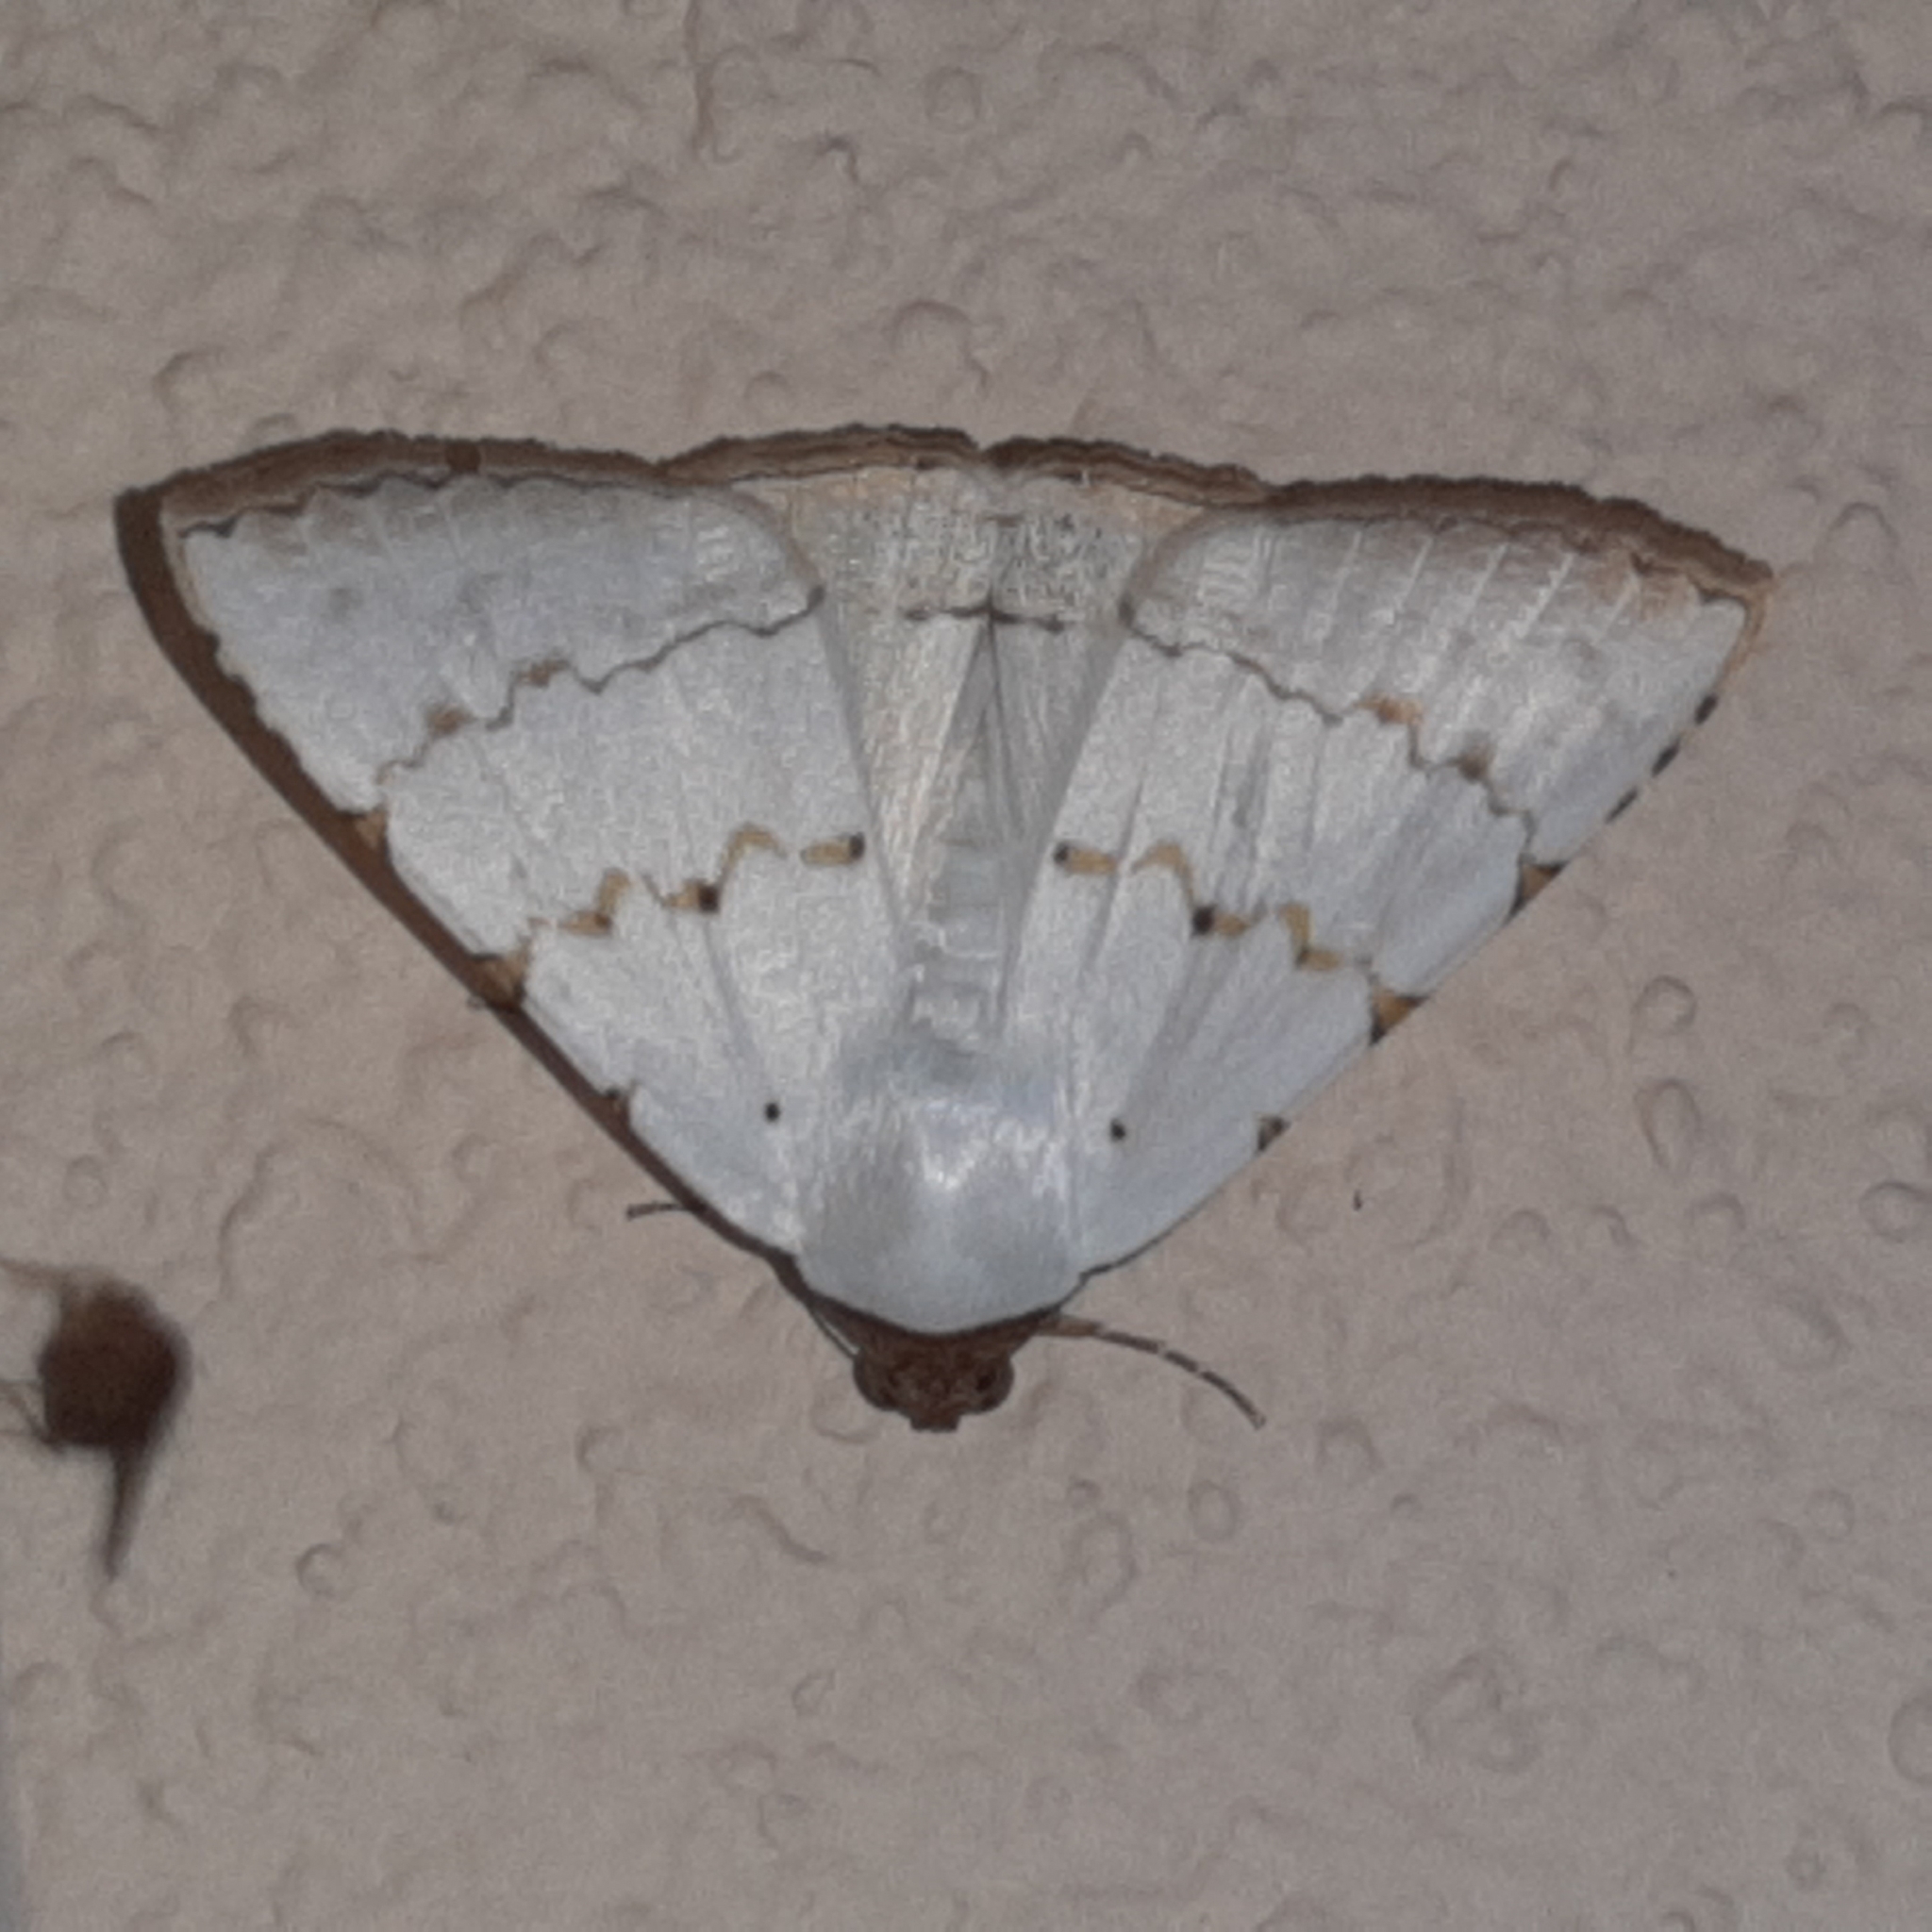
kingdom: Animalia
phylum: Arthropoda
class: Insecta
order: Lepidoptera
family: Erebidae
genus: Eulepidotis
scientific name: Eulepidotis alabastraria
